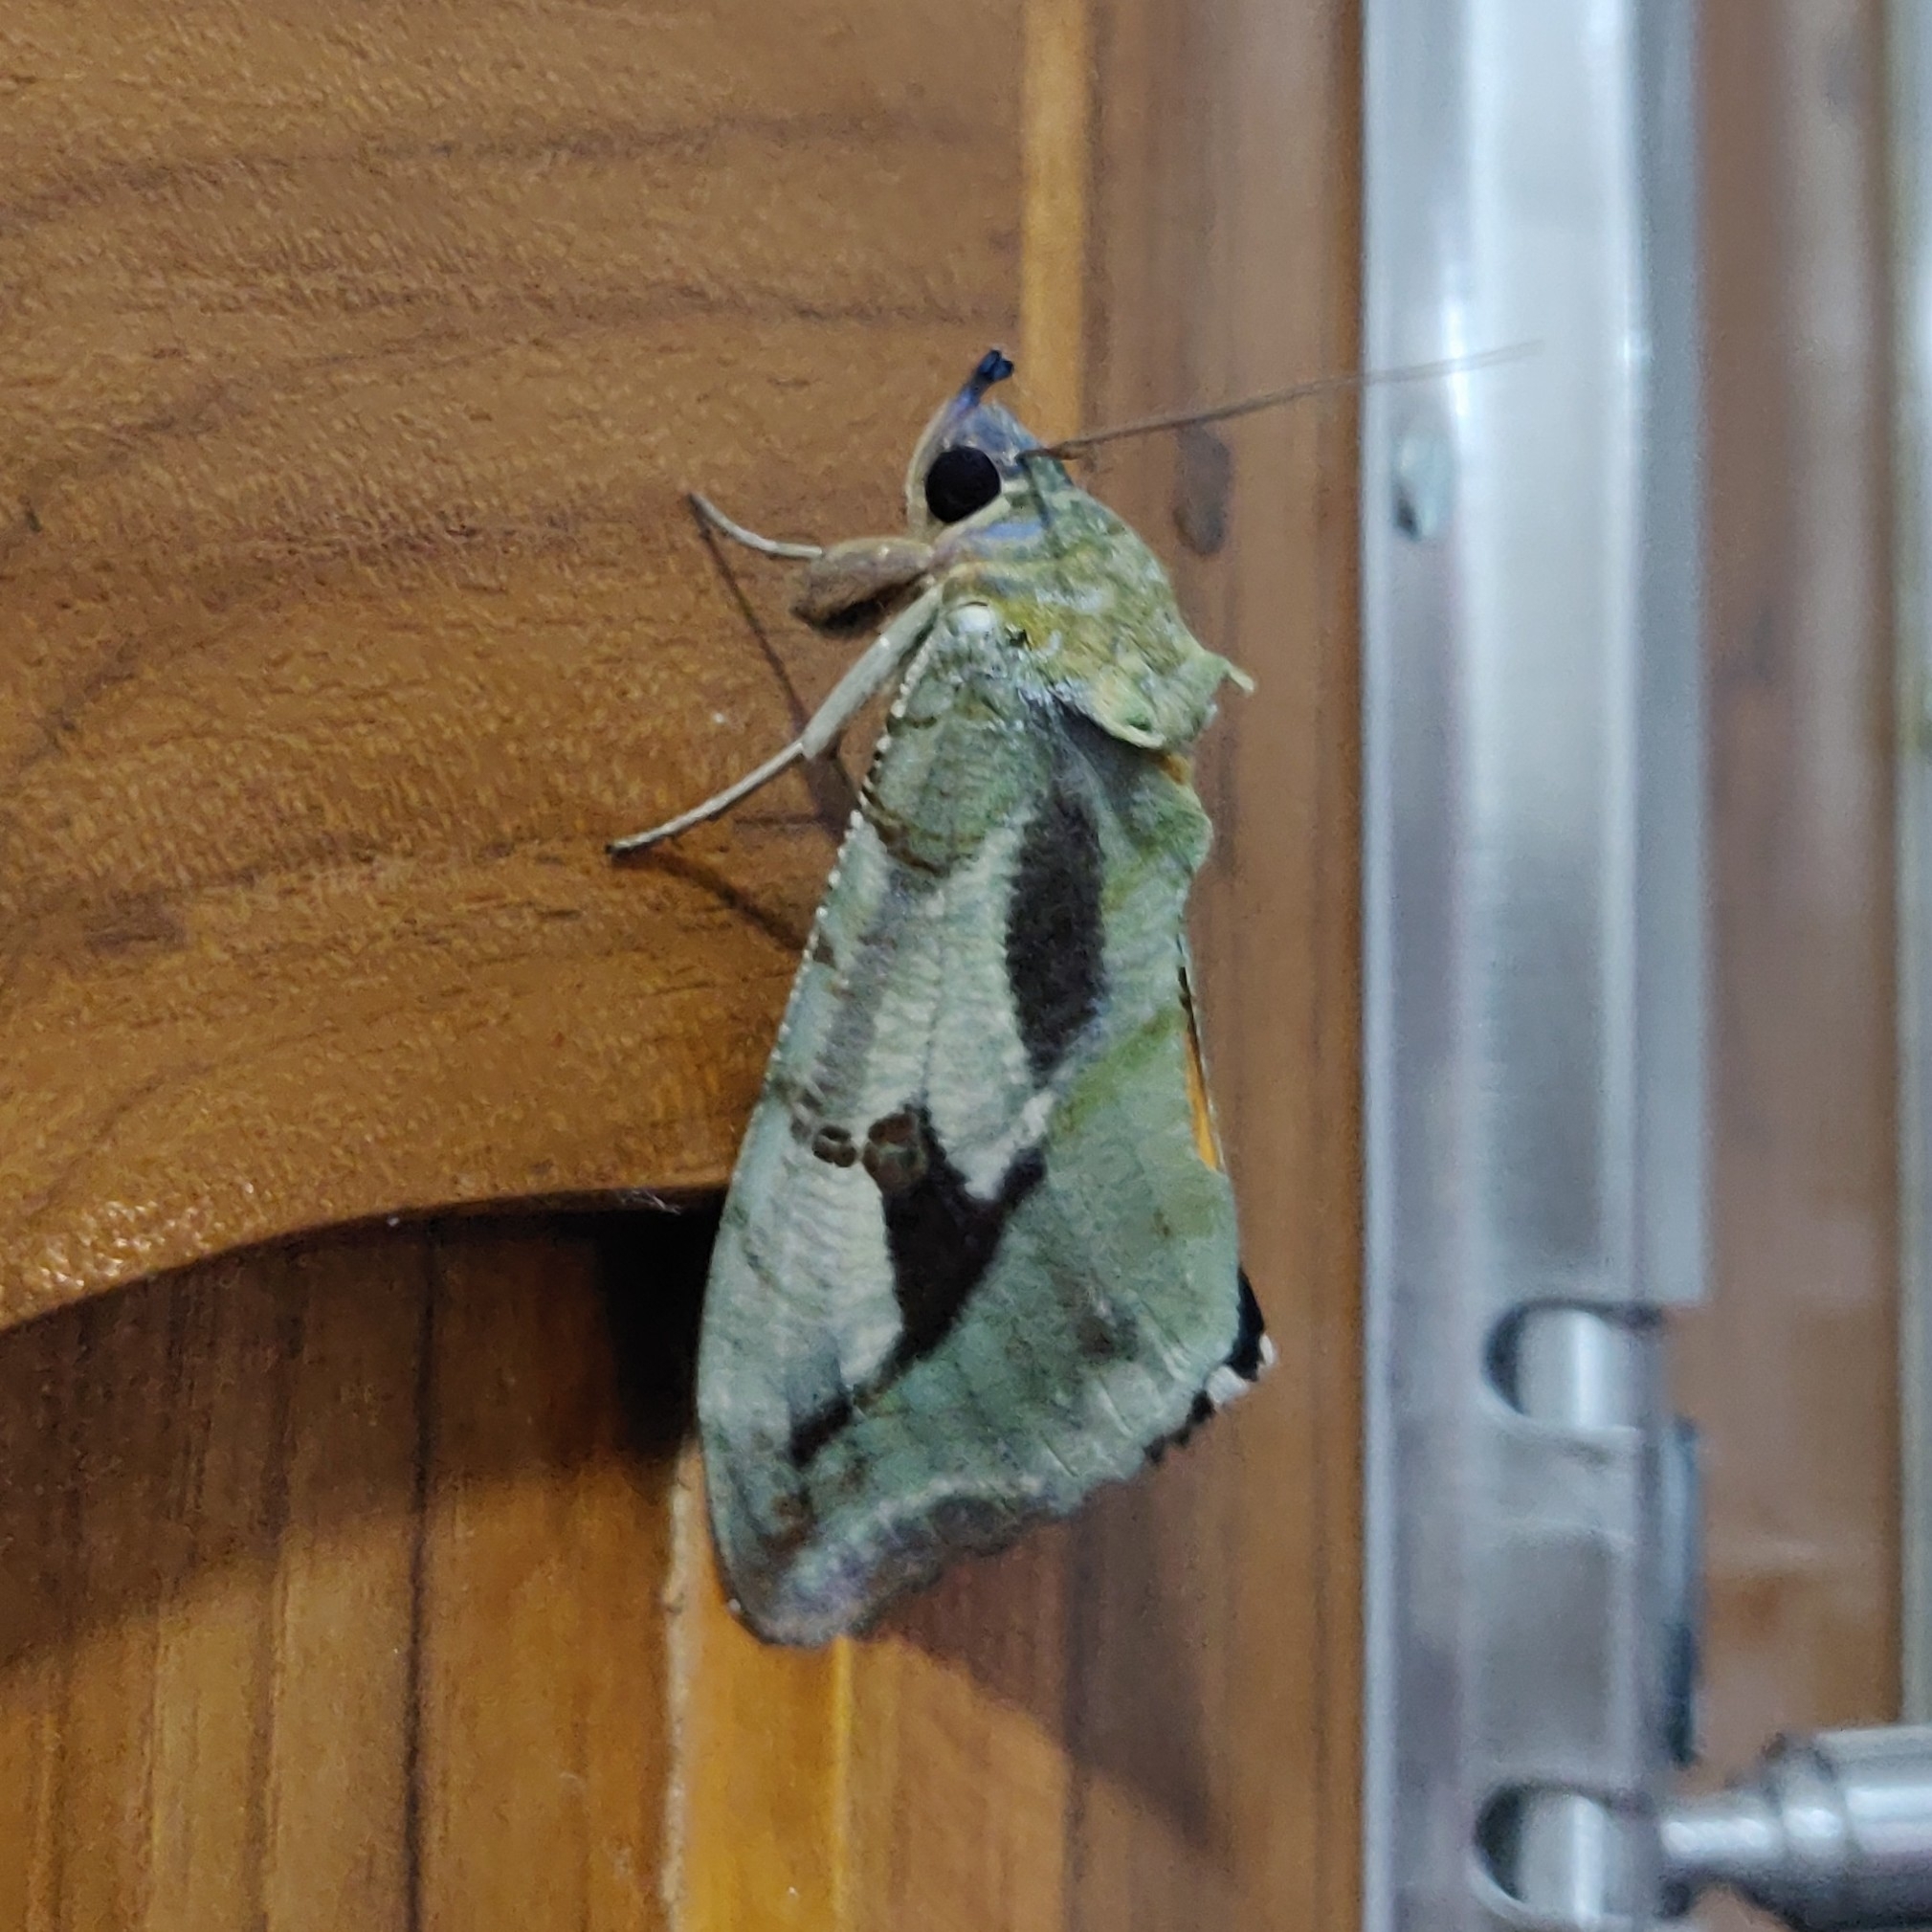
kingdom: Animalia
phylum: Arthropoda
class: Insecta
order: Lepidoptera
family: Erebidae
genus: Eudocima
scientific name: Eudocima materna
